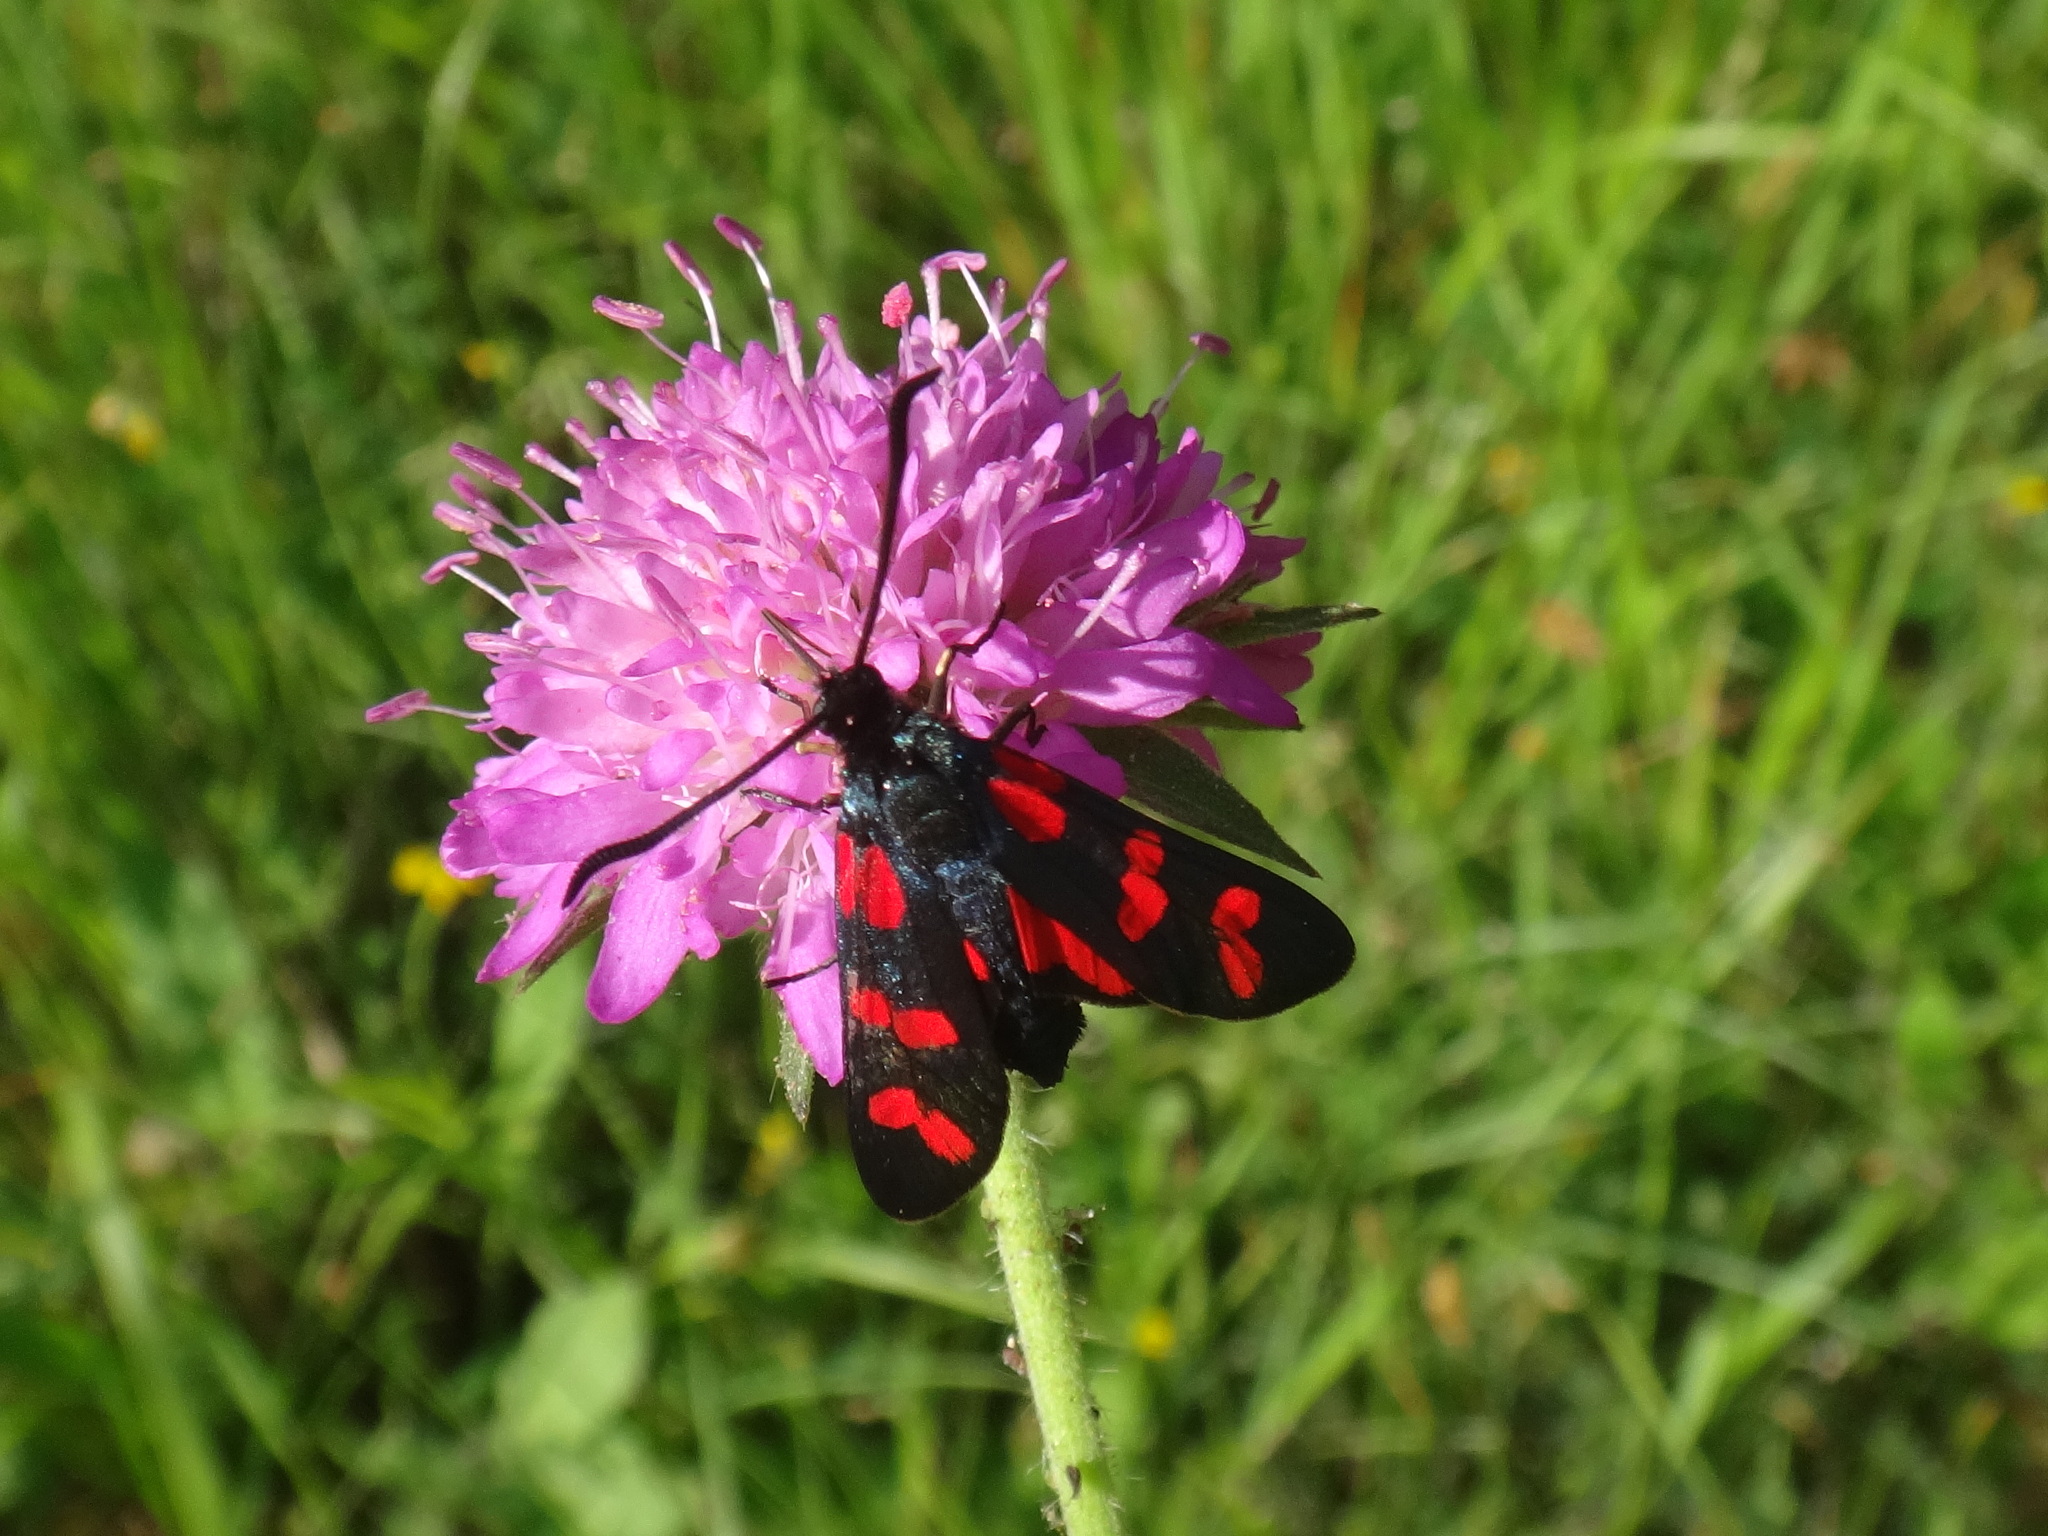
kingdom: Animalia
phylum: Arthropoda
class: Insecta
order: Lepidoptera
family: Zygaenidae
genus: Zygaena
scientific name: Zygaena filipendulae
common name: Six-spot burnet
